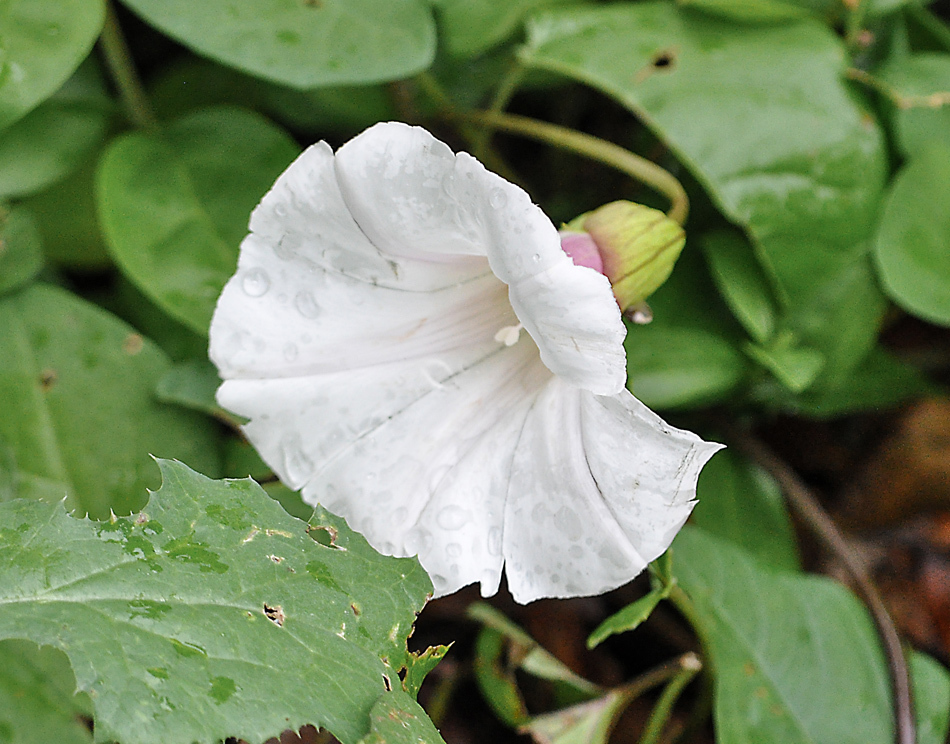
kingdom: Plantae
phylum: Tracheophyta
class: Magnoliopsida
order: Solanales
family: Convolvulaceae
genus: Calystegia
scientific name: Calystegia sepium
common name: Hedge bindweed
